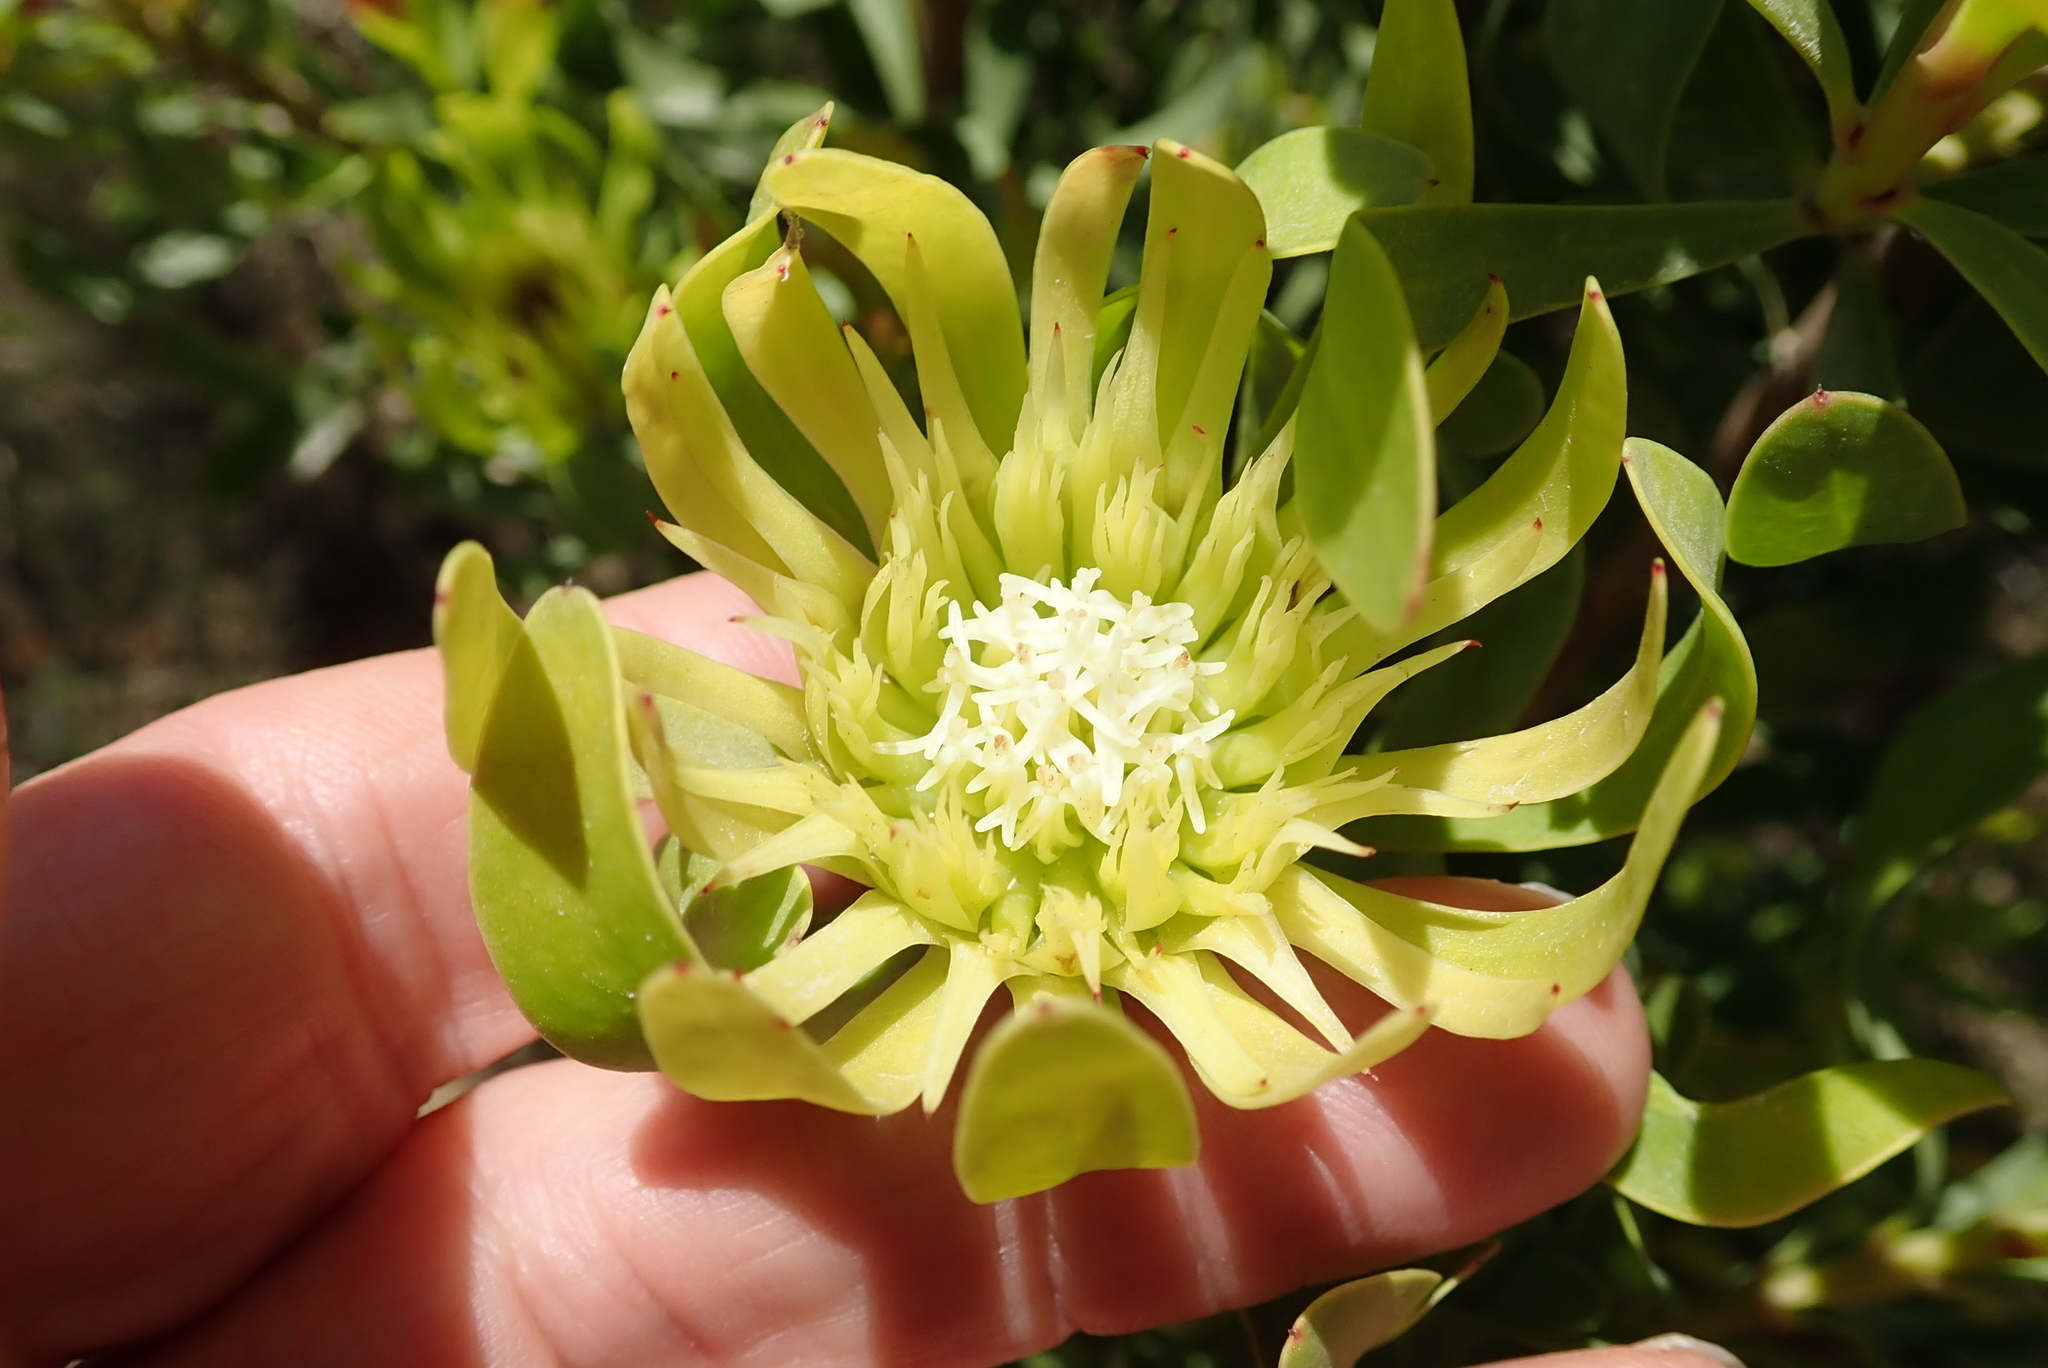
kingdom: Plantae
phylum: Tracheophyta
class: Magnoliopsida
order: Proteales
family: Proteaceae
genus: Aulax
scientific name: Aulax umbellata
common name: Broad-leaf featherbush
